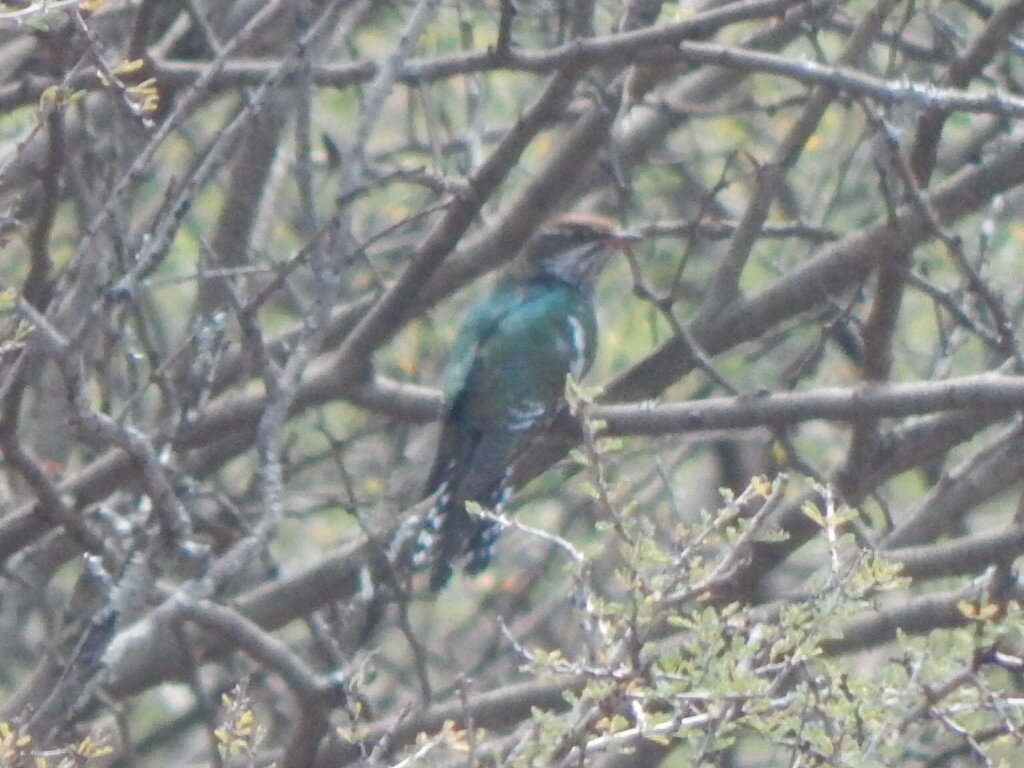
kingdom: Animalia
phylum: Chordata
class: Aves
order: Cuculiformes
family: Cuculidae
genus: Chrysococcyx
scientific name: Chrysococcyx caprius
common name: Diederik cuckoo
